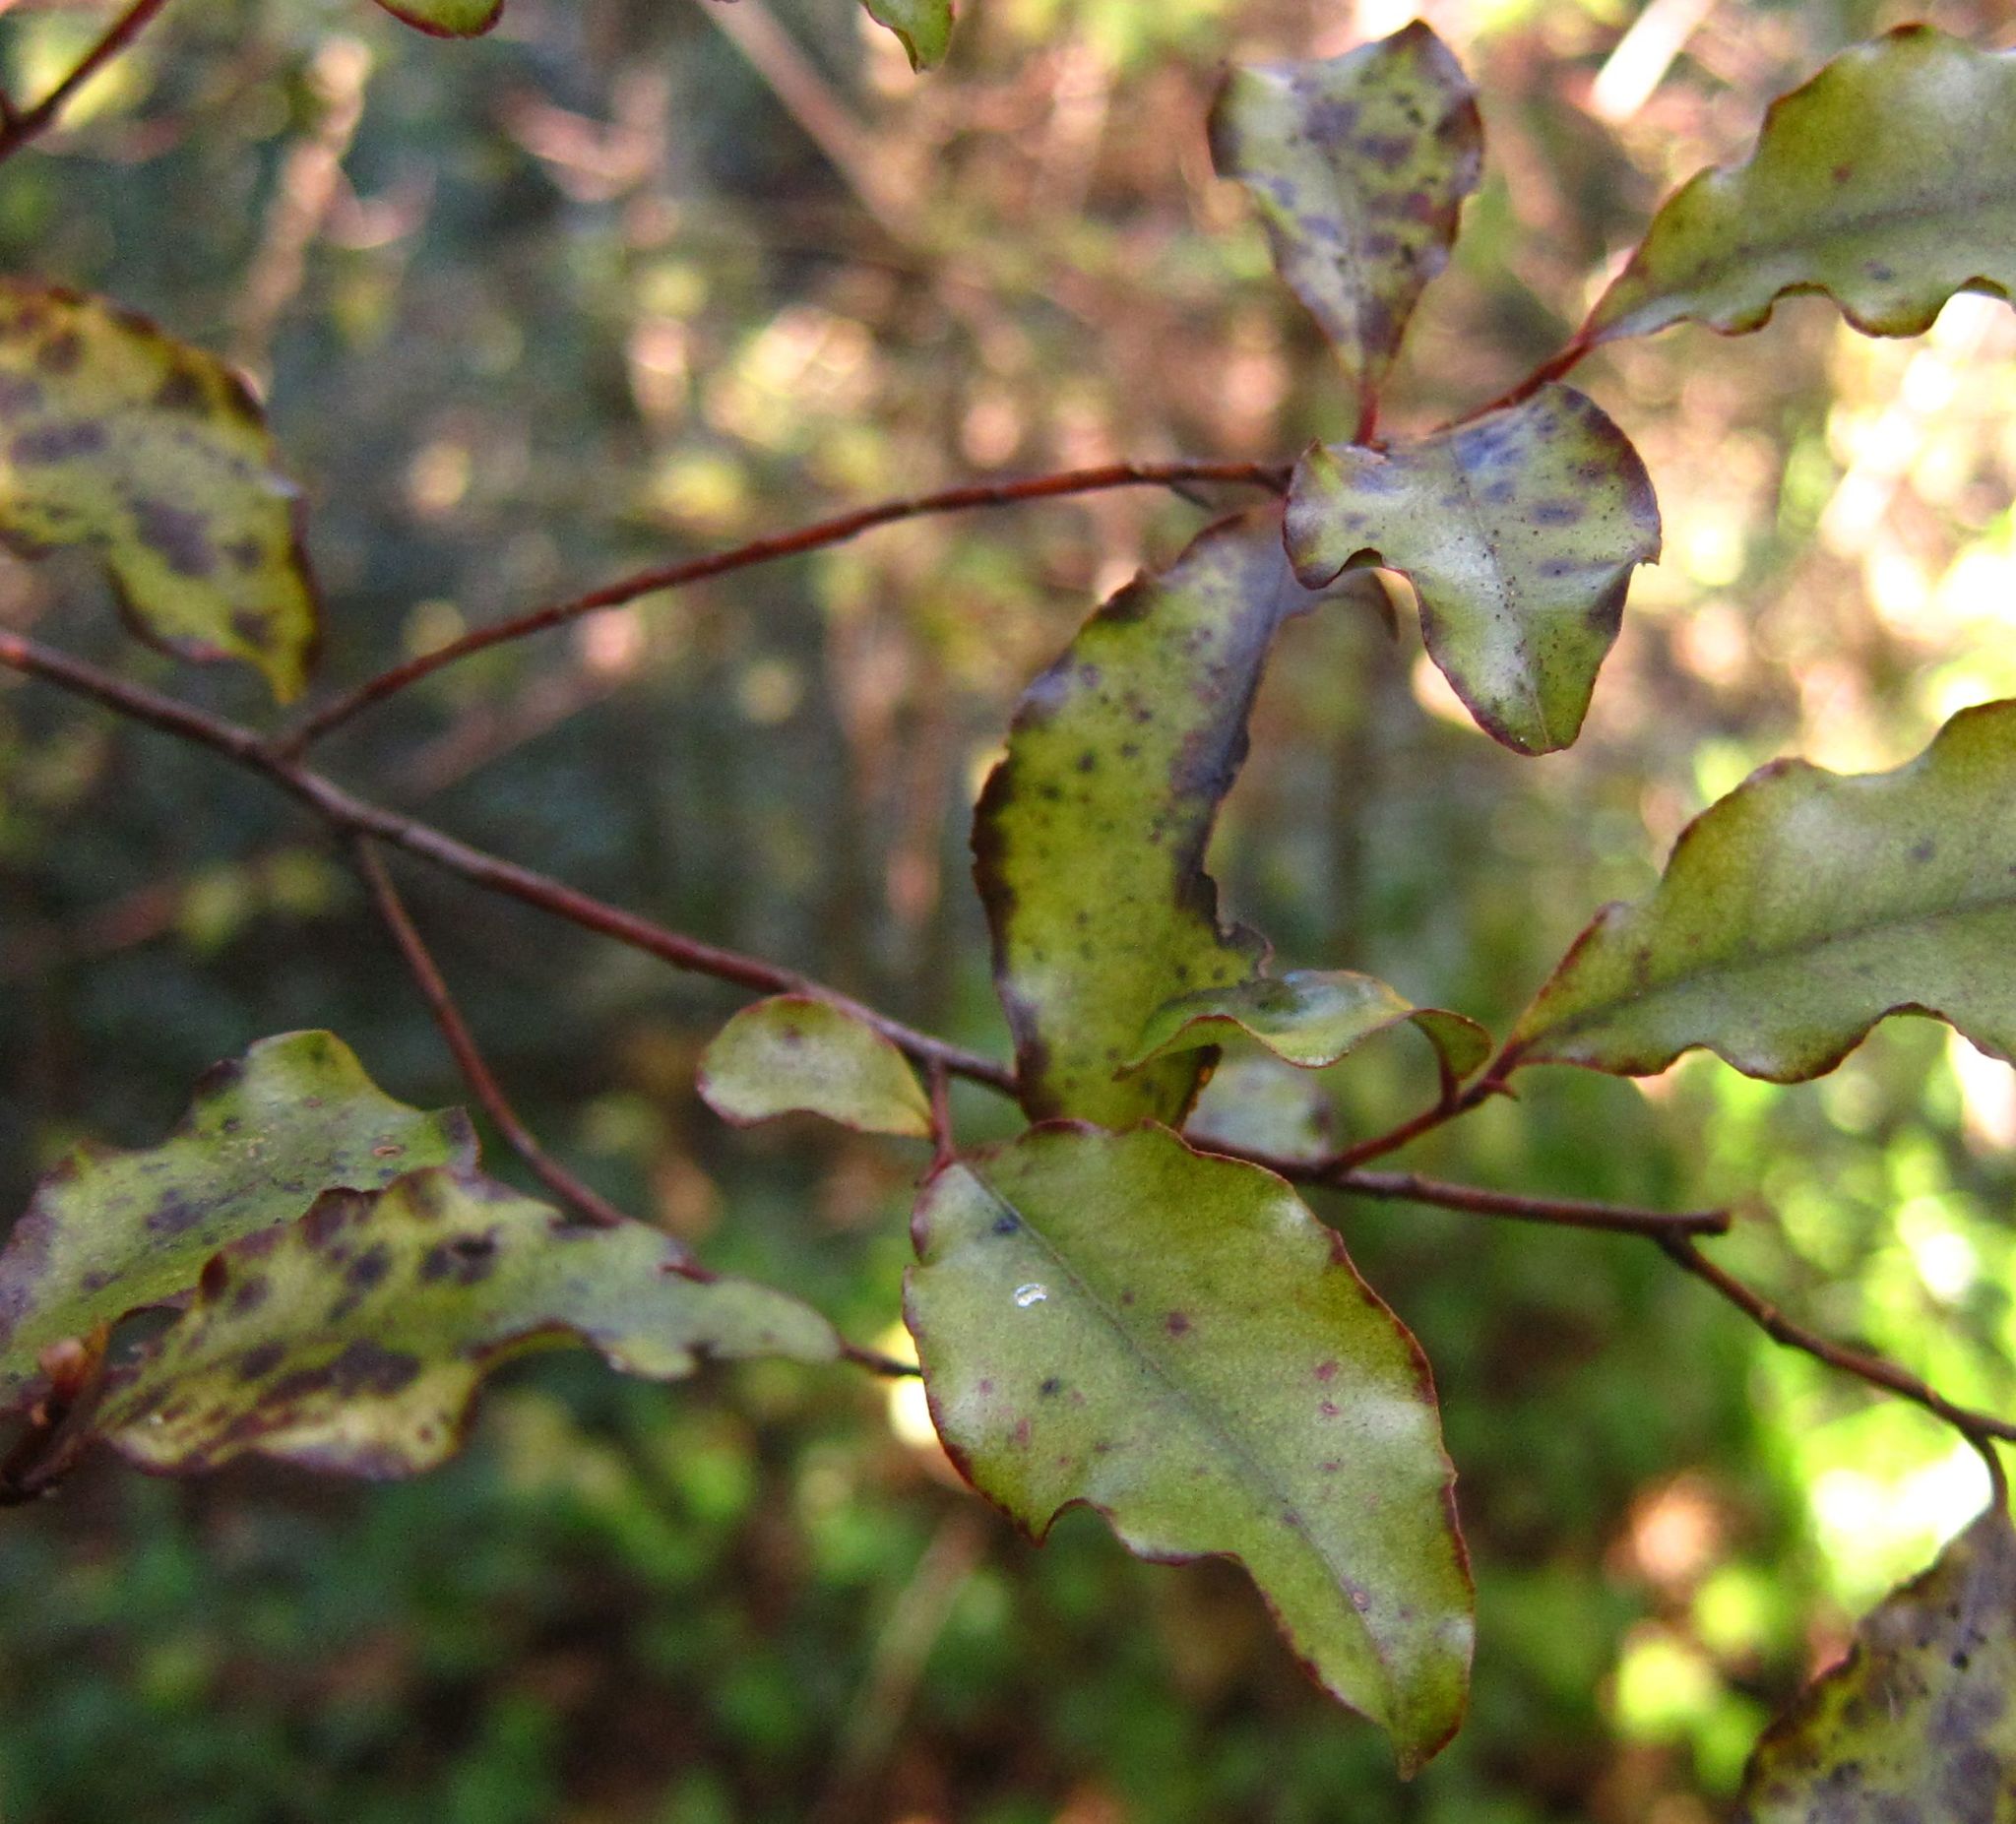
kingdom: Plantae
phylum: Tracheophyta
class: Magnoliopsida
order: Ericales
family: Primulaceae
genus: Myrsine
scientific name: Myrsine australis
